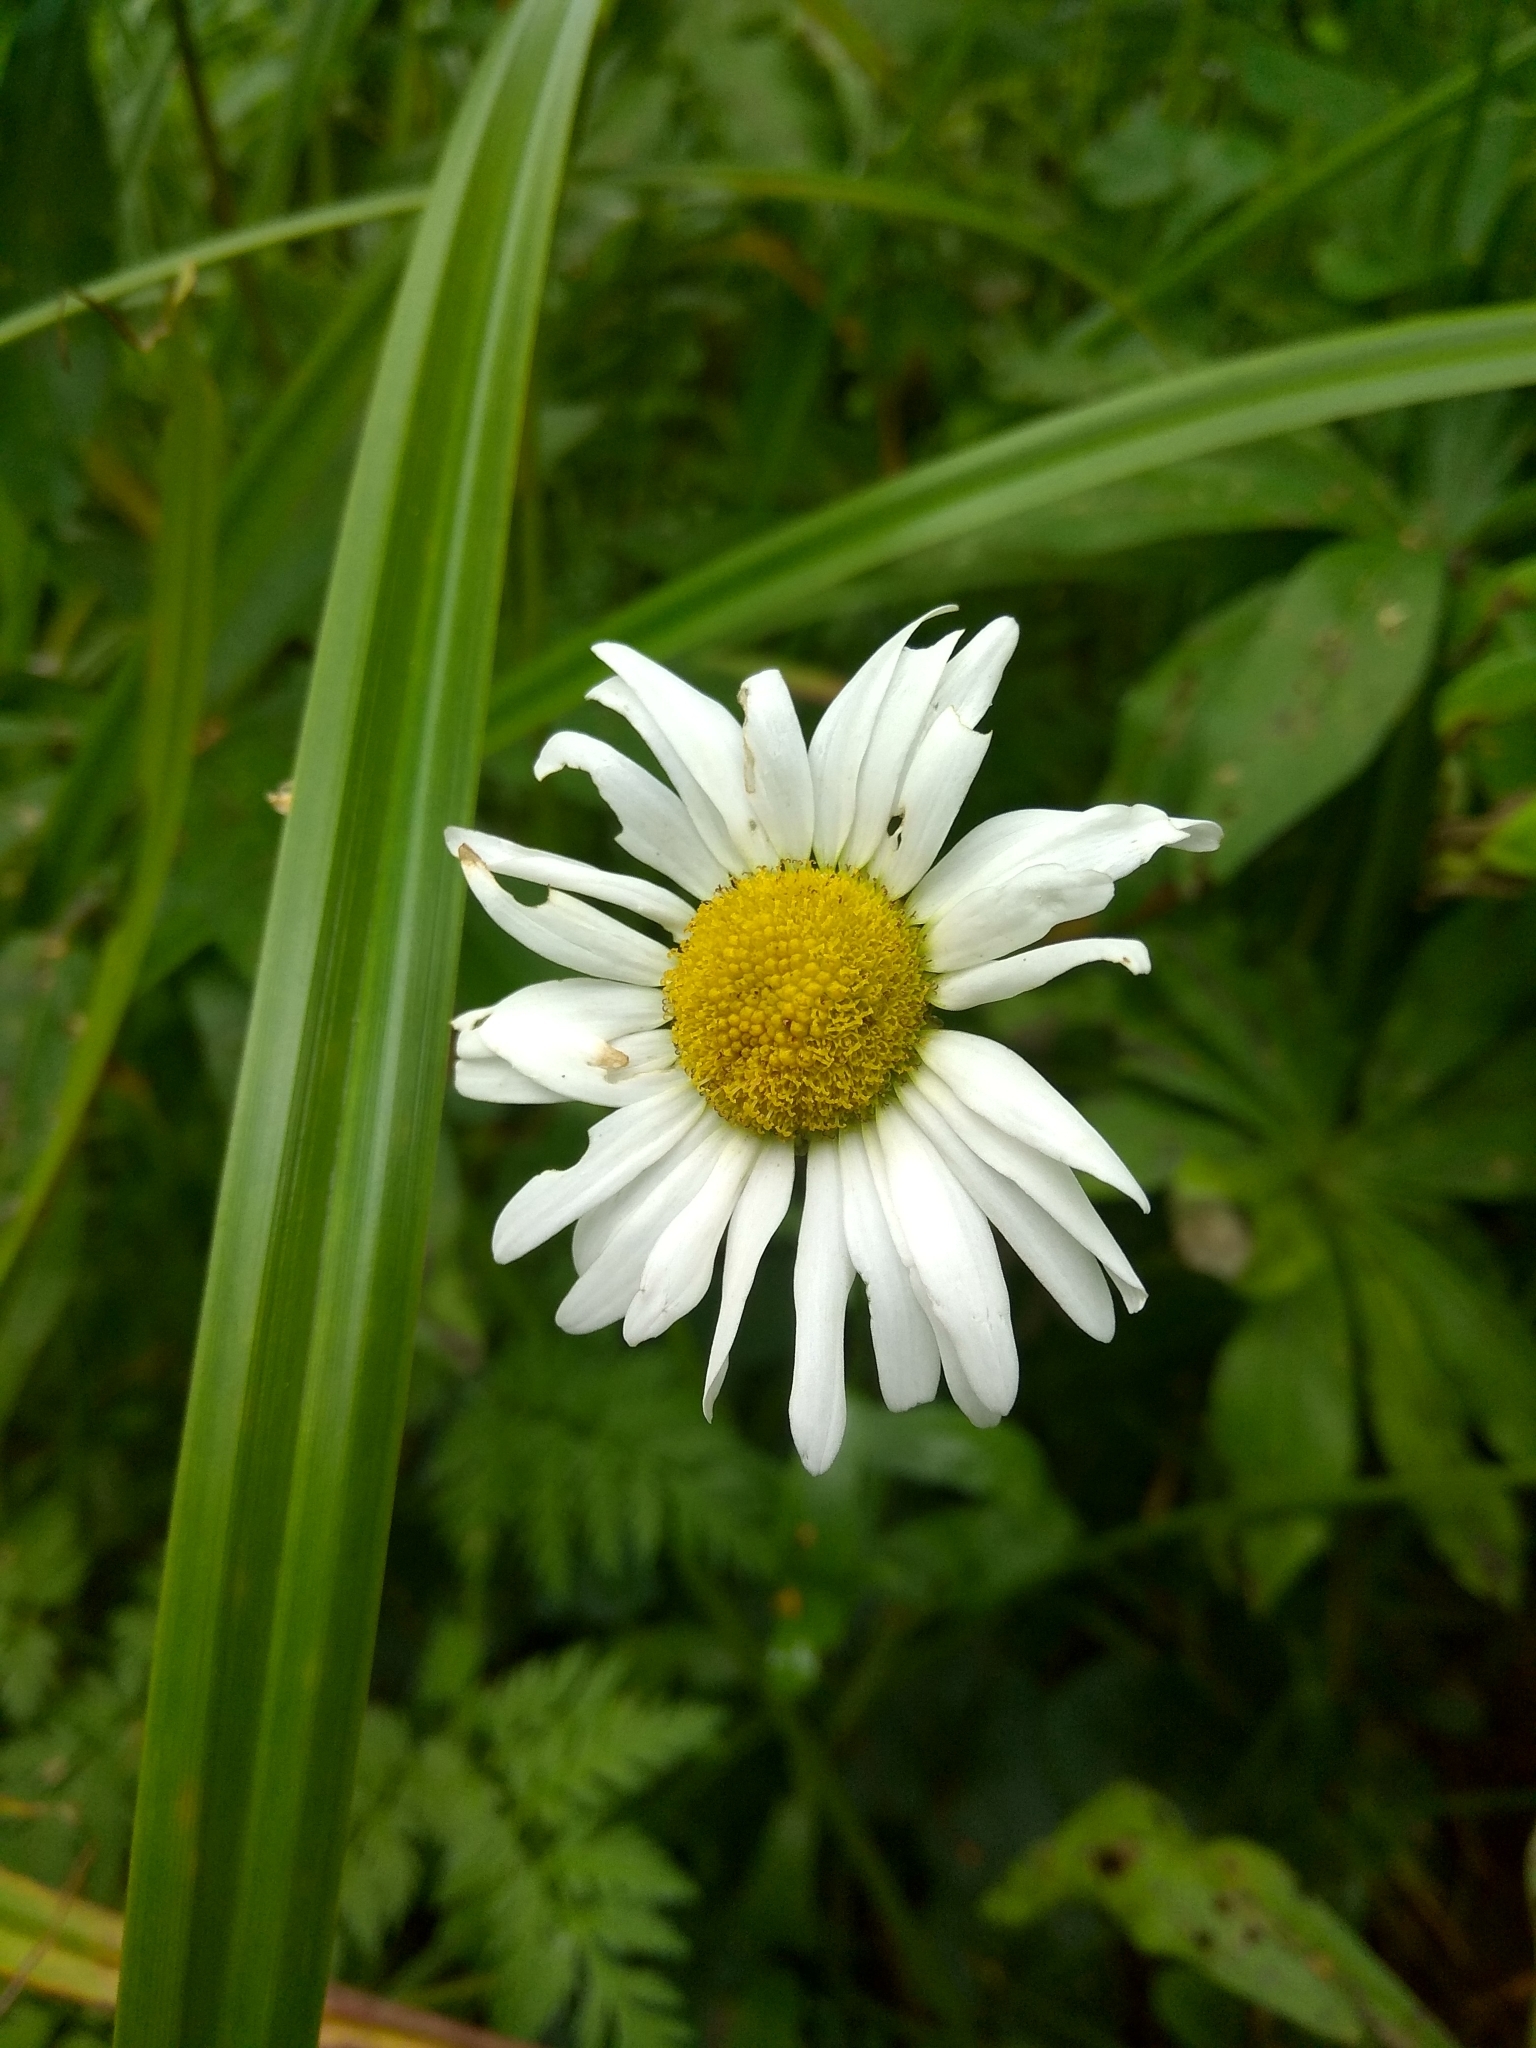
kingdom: Plantae
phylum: Tracheophyta
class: Magnoliopsida
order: Asterales
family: Asteraceae
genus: Leucanthemum
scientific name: Leucanthemum vulgare
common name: Oxeye daisy
